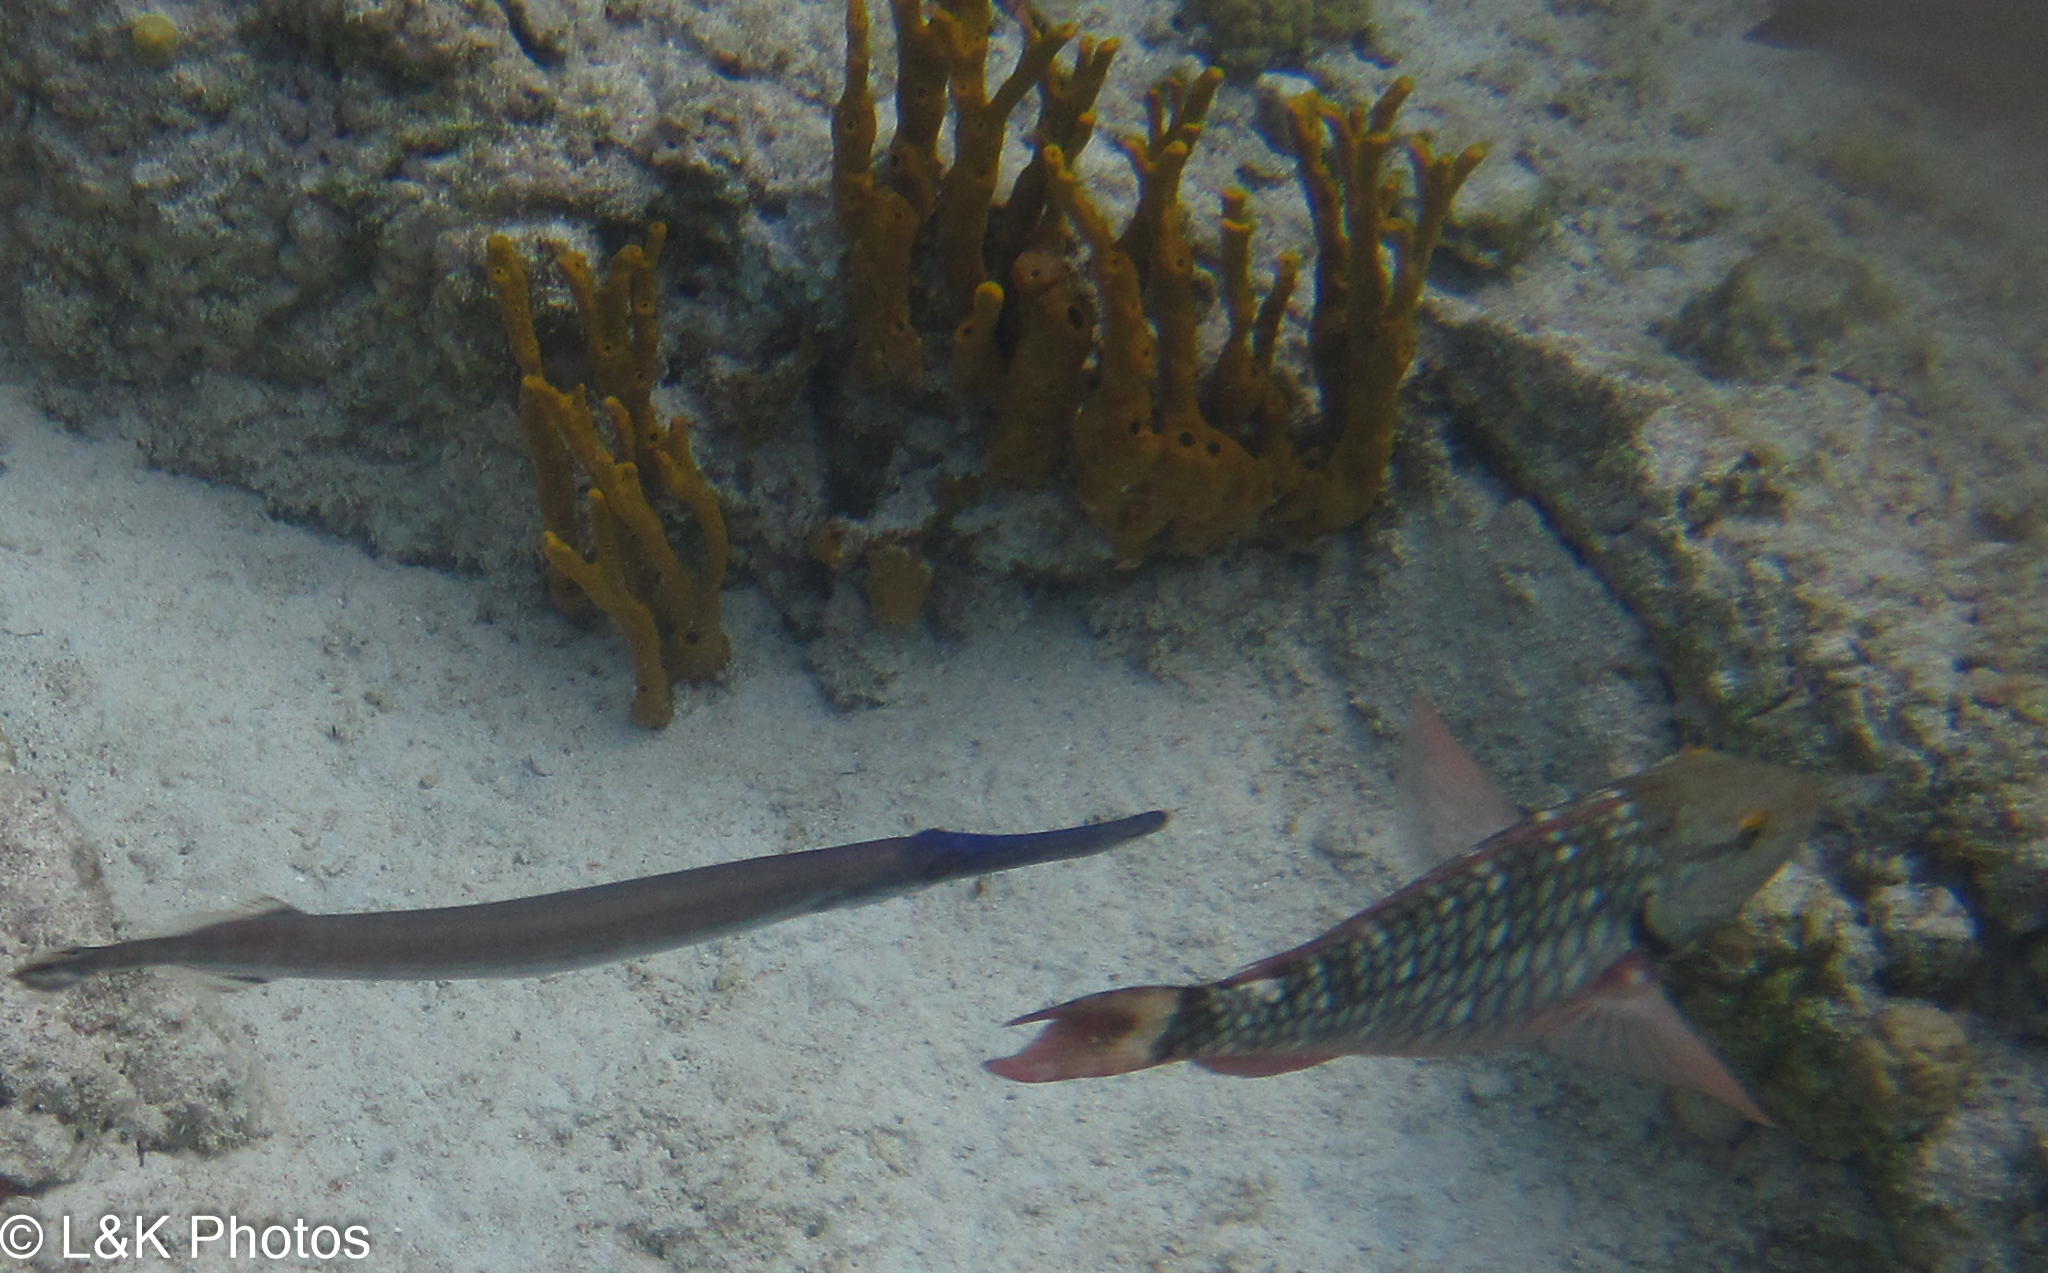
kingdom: Animalia
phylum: Chordata
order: Syngnathiformes
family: Aulostomidae
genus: Aulostomus
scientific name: Aulostomus maculatus
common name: West atlantic trumpetfish
